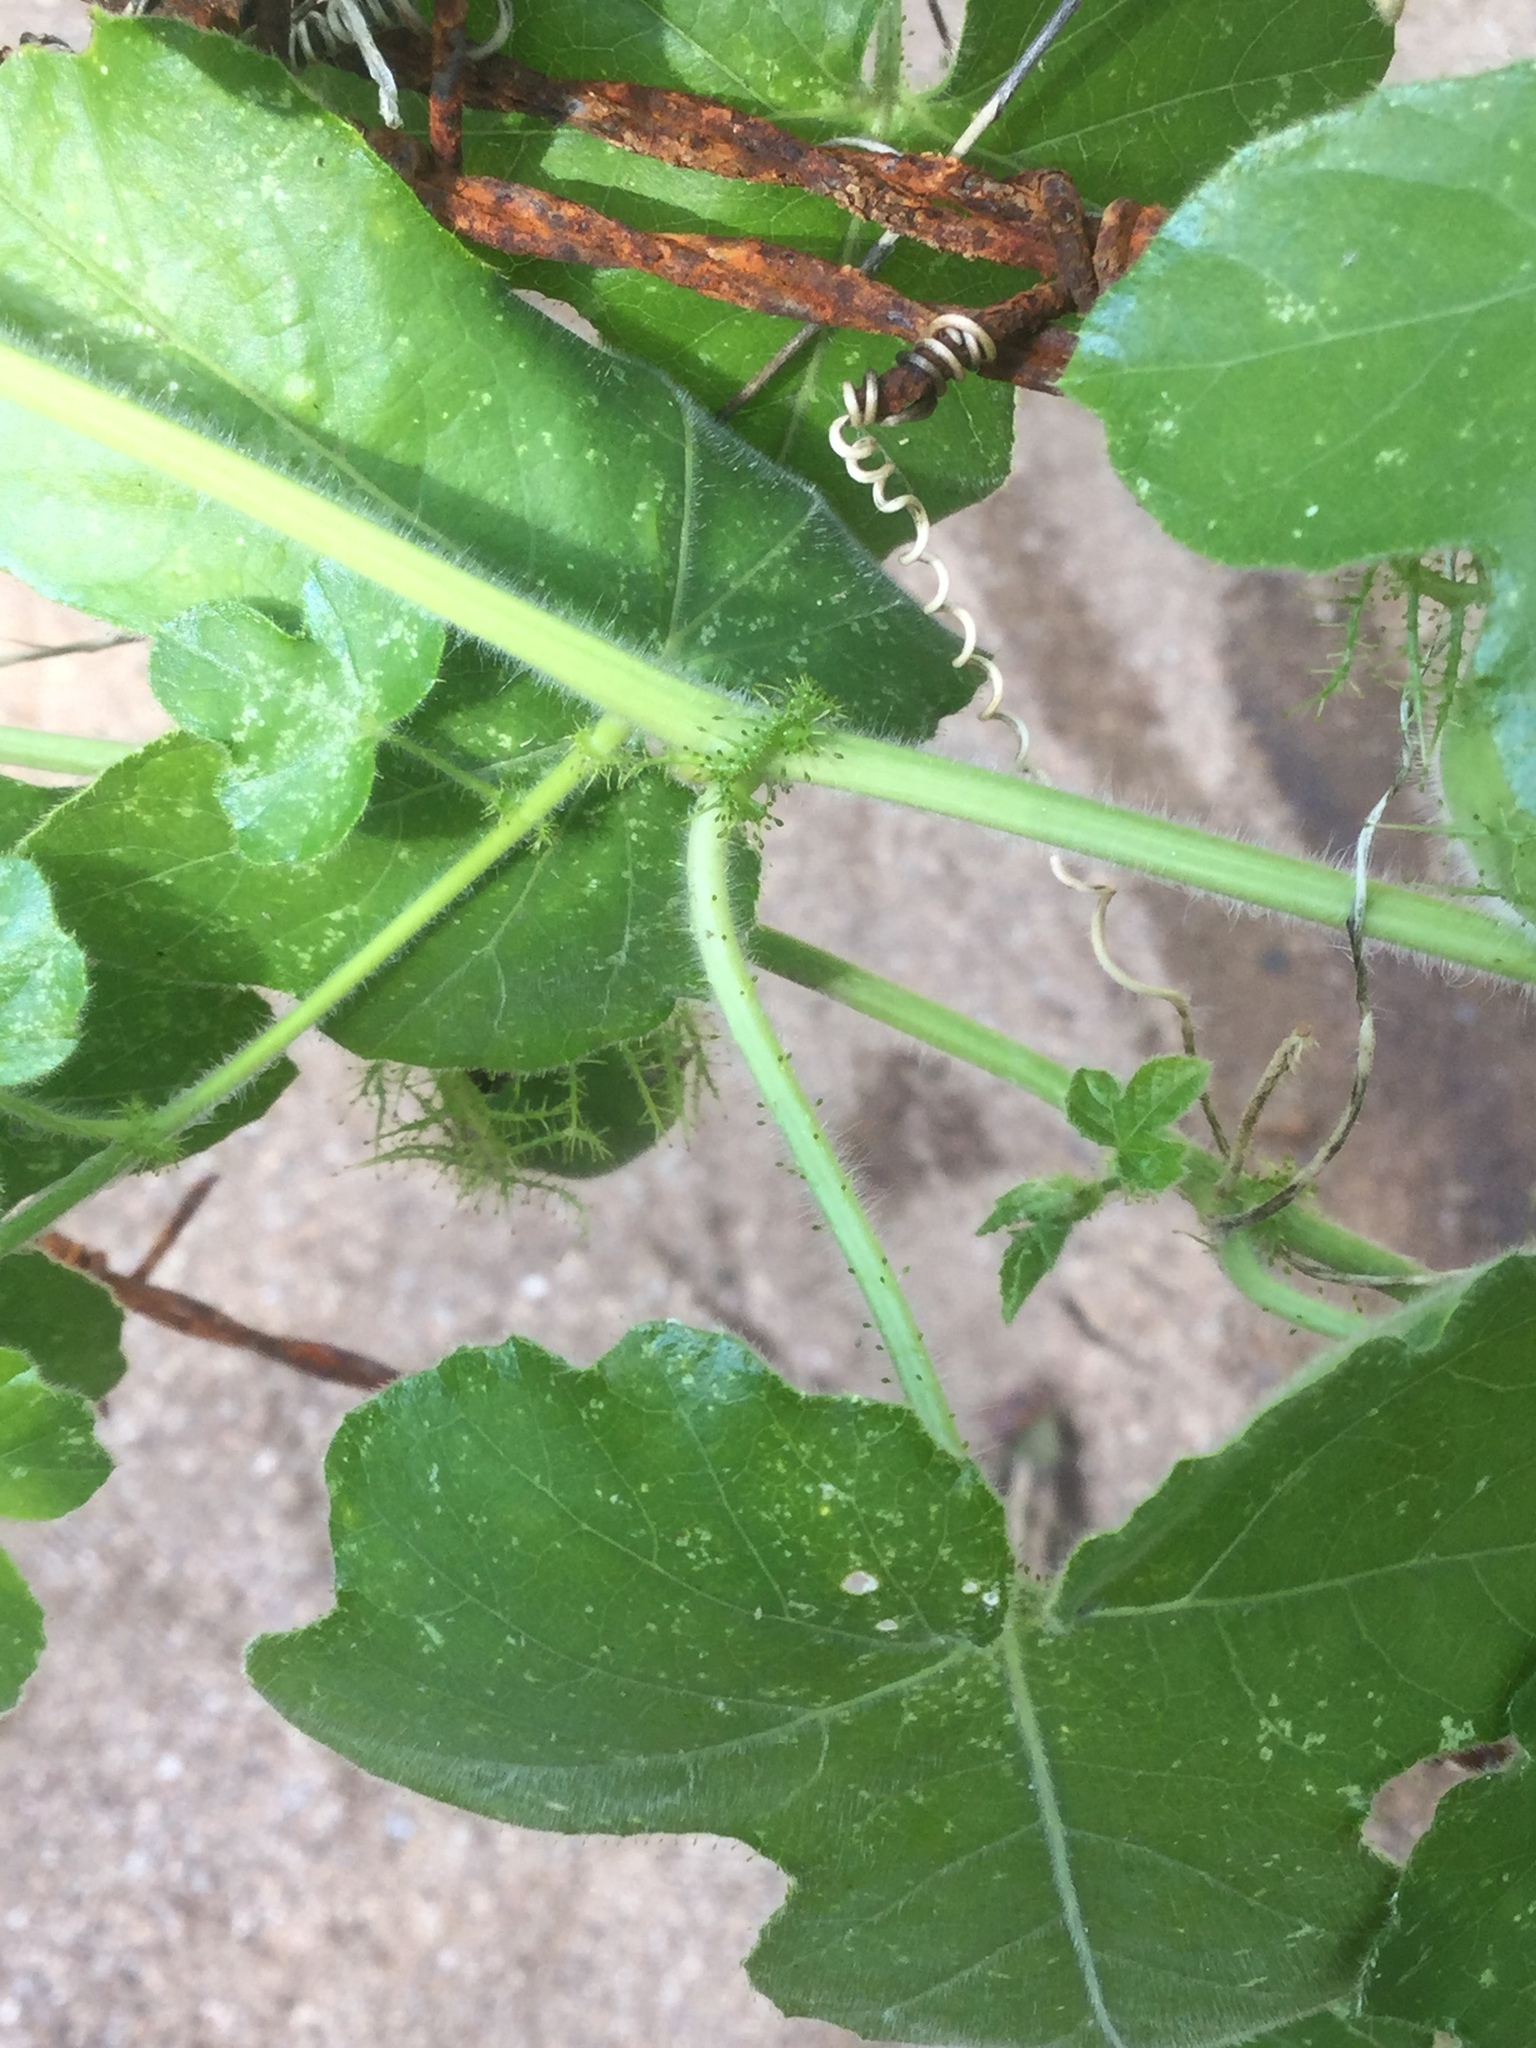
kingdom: Plantae
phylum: Tracheophyta
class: Magnoliopsida
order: Malpighiales
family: Passifloraceae
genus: Passiflora
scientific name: Passiflora foetida
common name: Fetid passionflower
